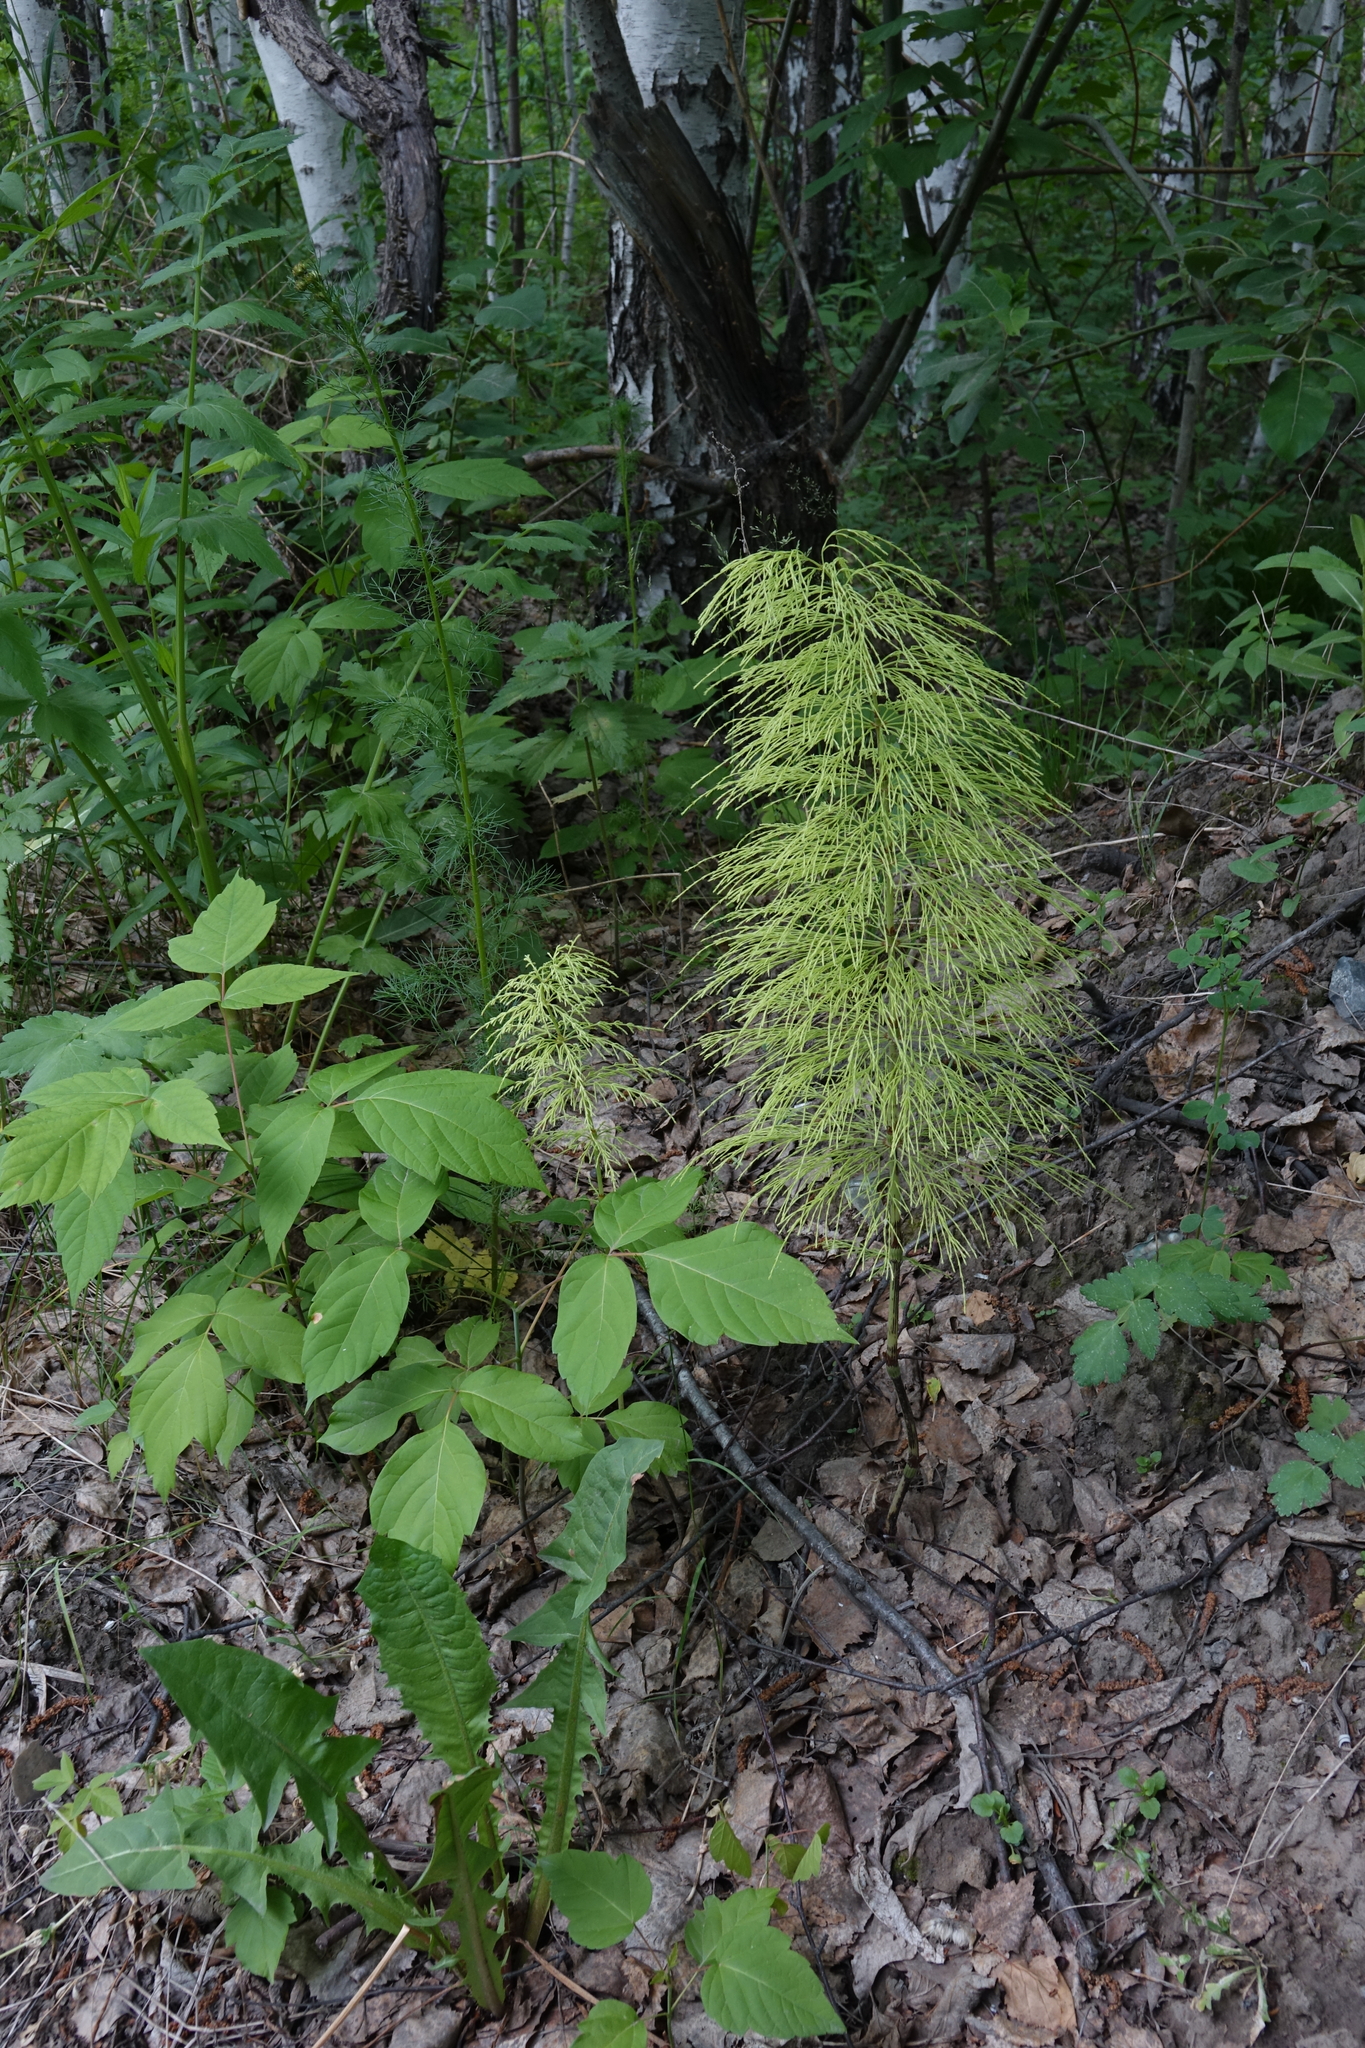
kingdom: Plantae
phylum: Tracheophyta
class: Polypodiopsida
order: Equisetales
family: Equisetaceae
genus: Equisetum
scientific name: Equisetum sylvaticum
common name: Wood horsetail
